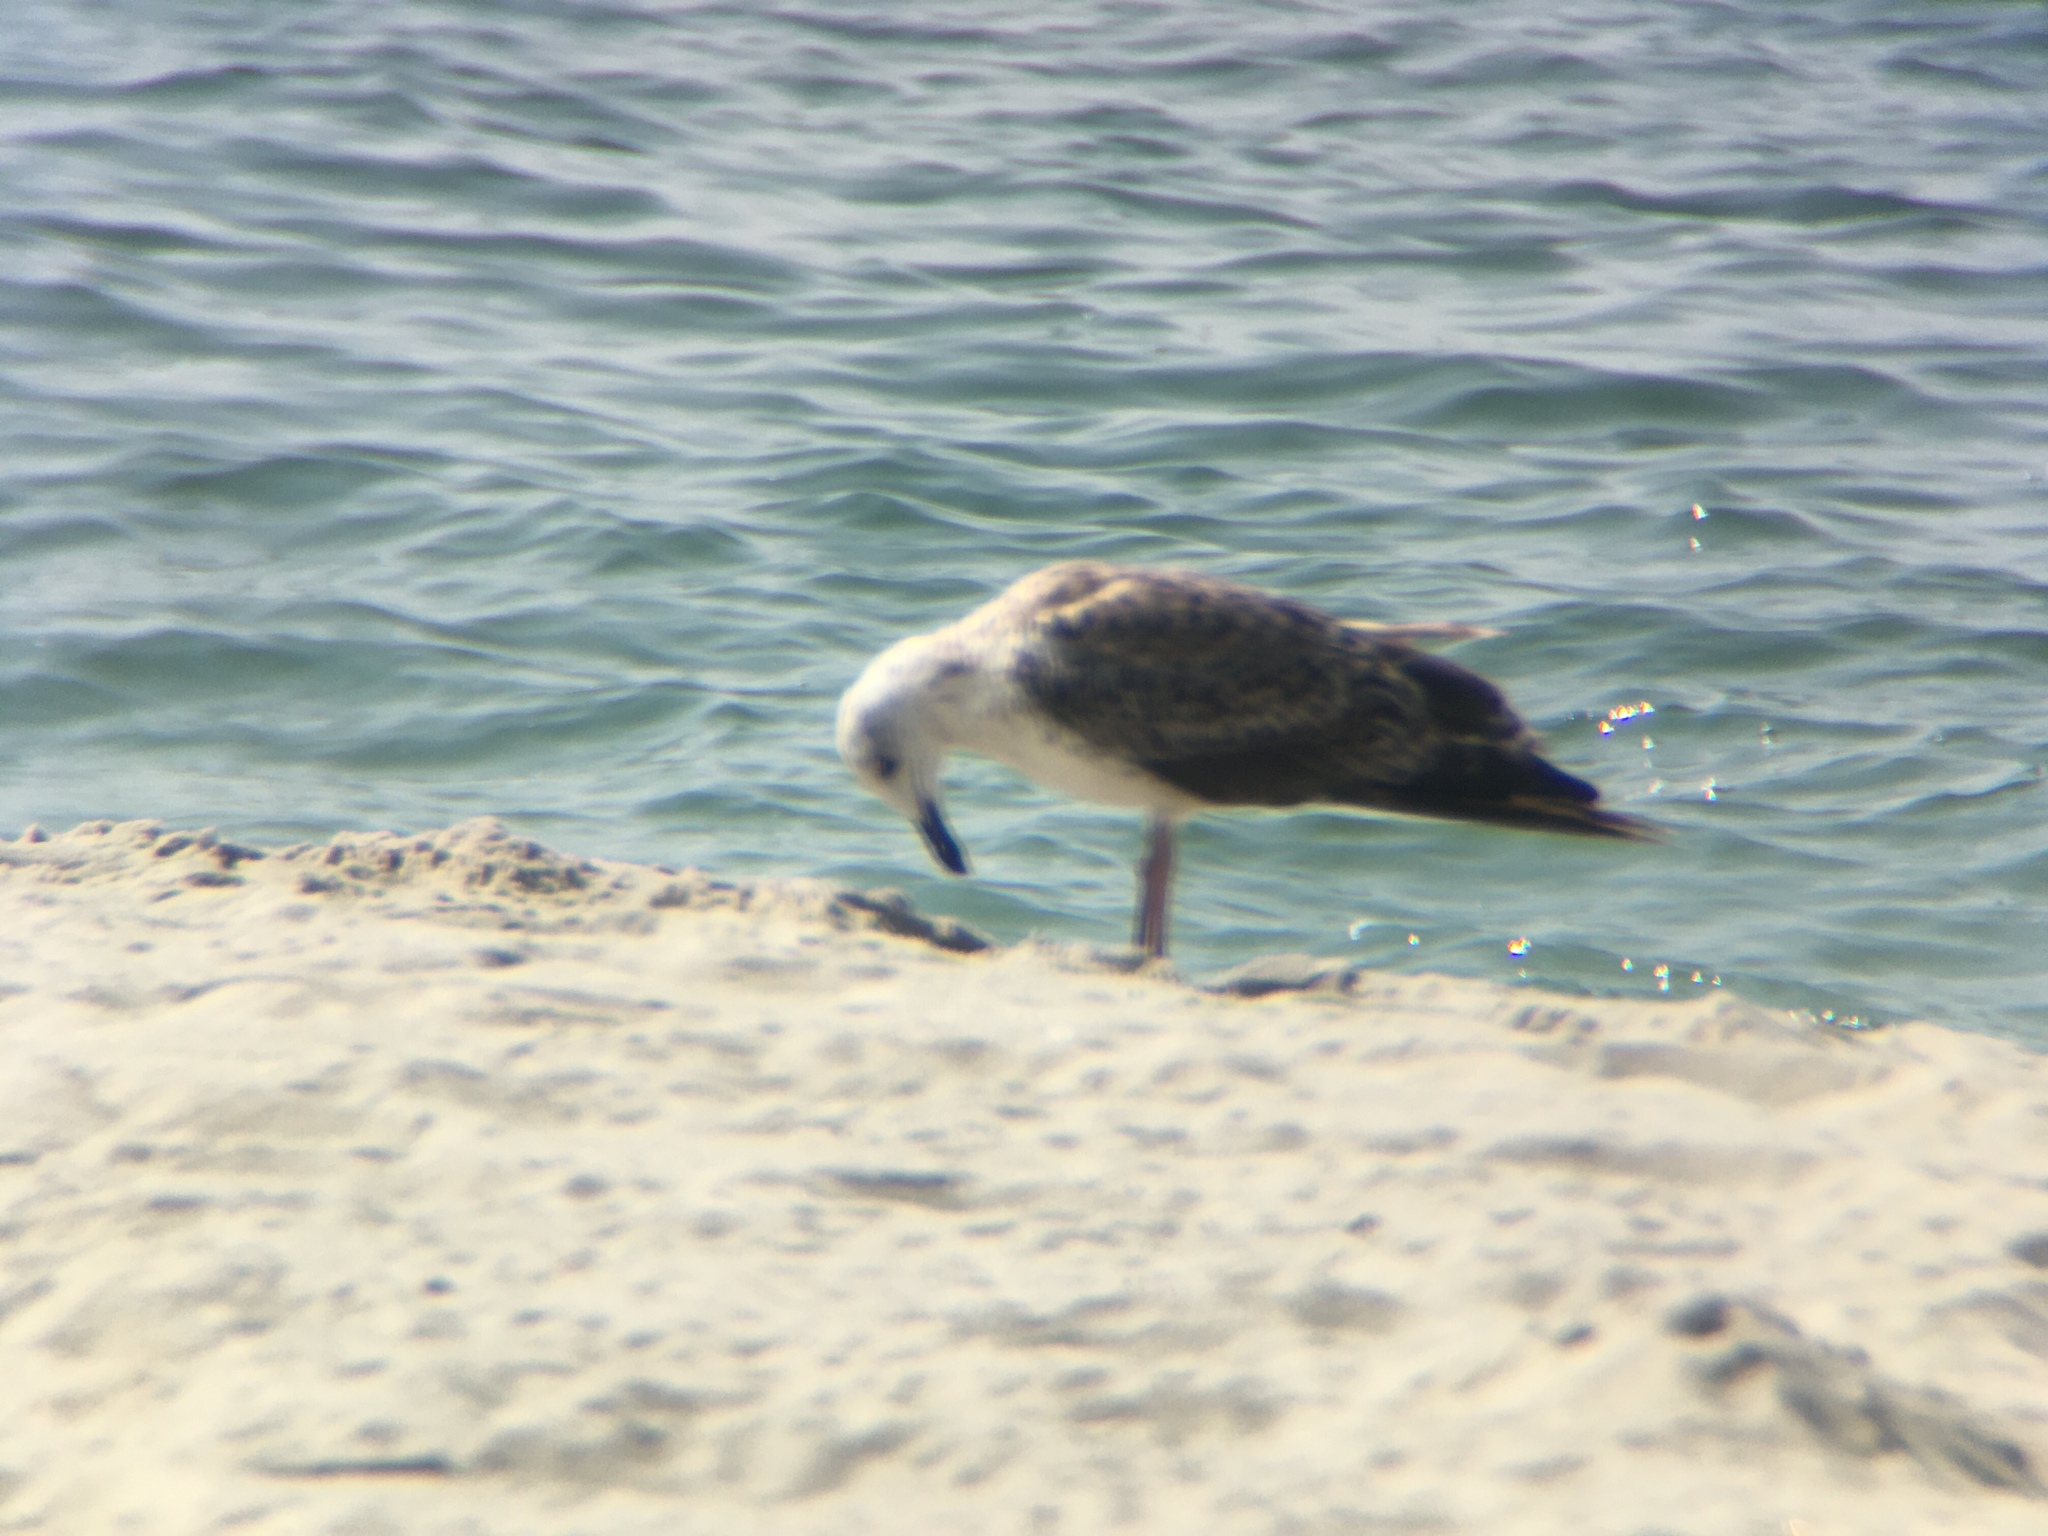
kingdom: Animalia
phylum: Chordata
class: Aves
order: Charadriiformes
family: Laridae
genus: Larus
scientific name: Larus marinus
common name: Great black-backed gull
